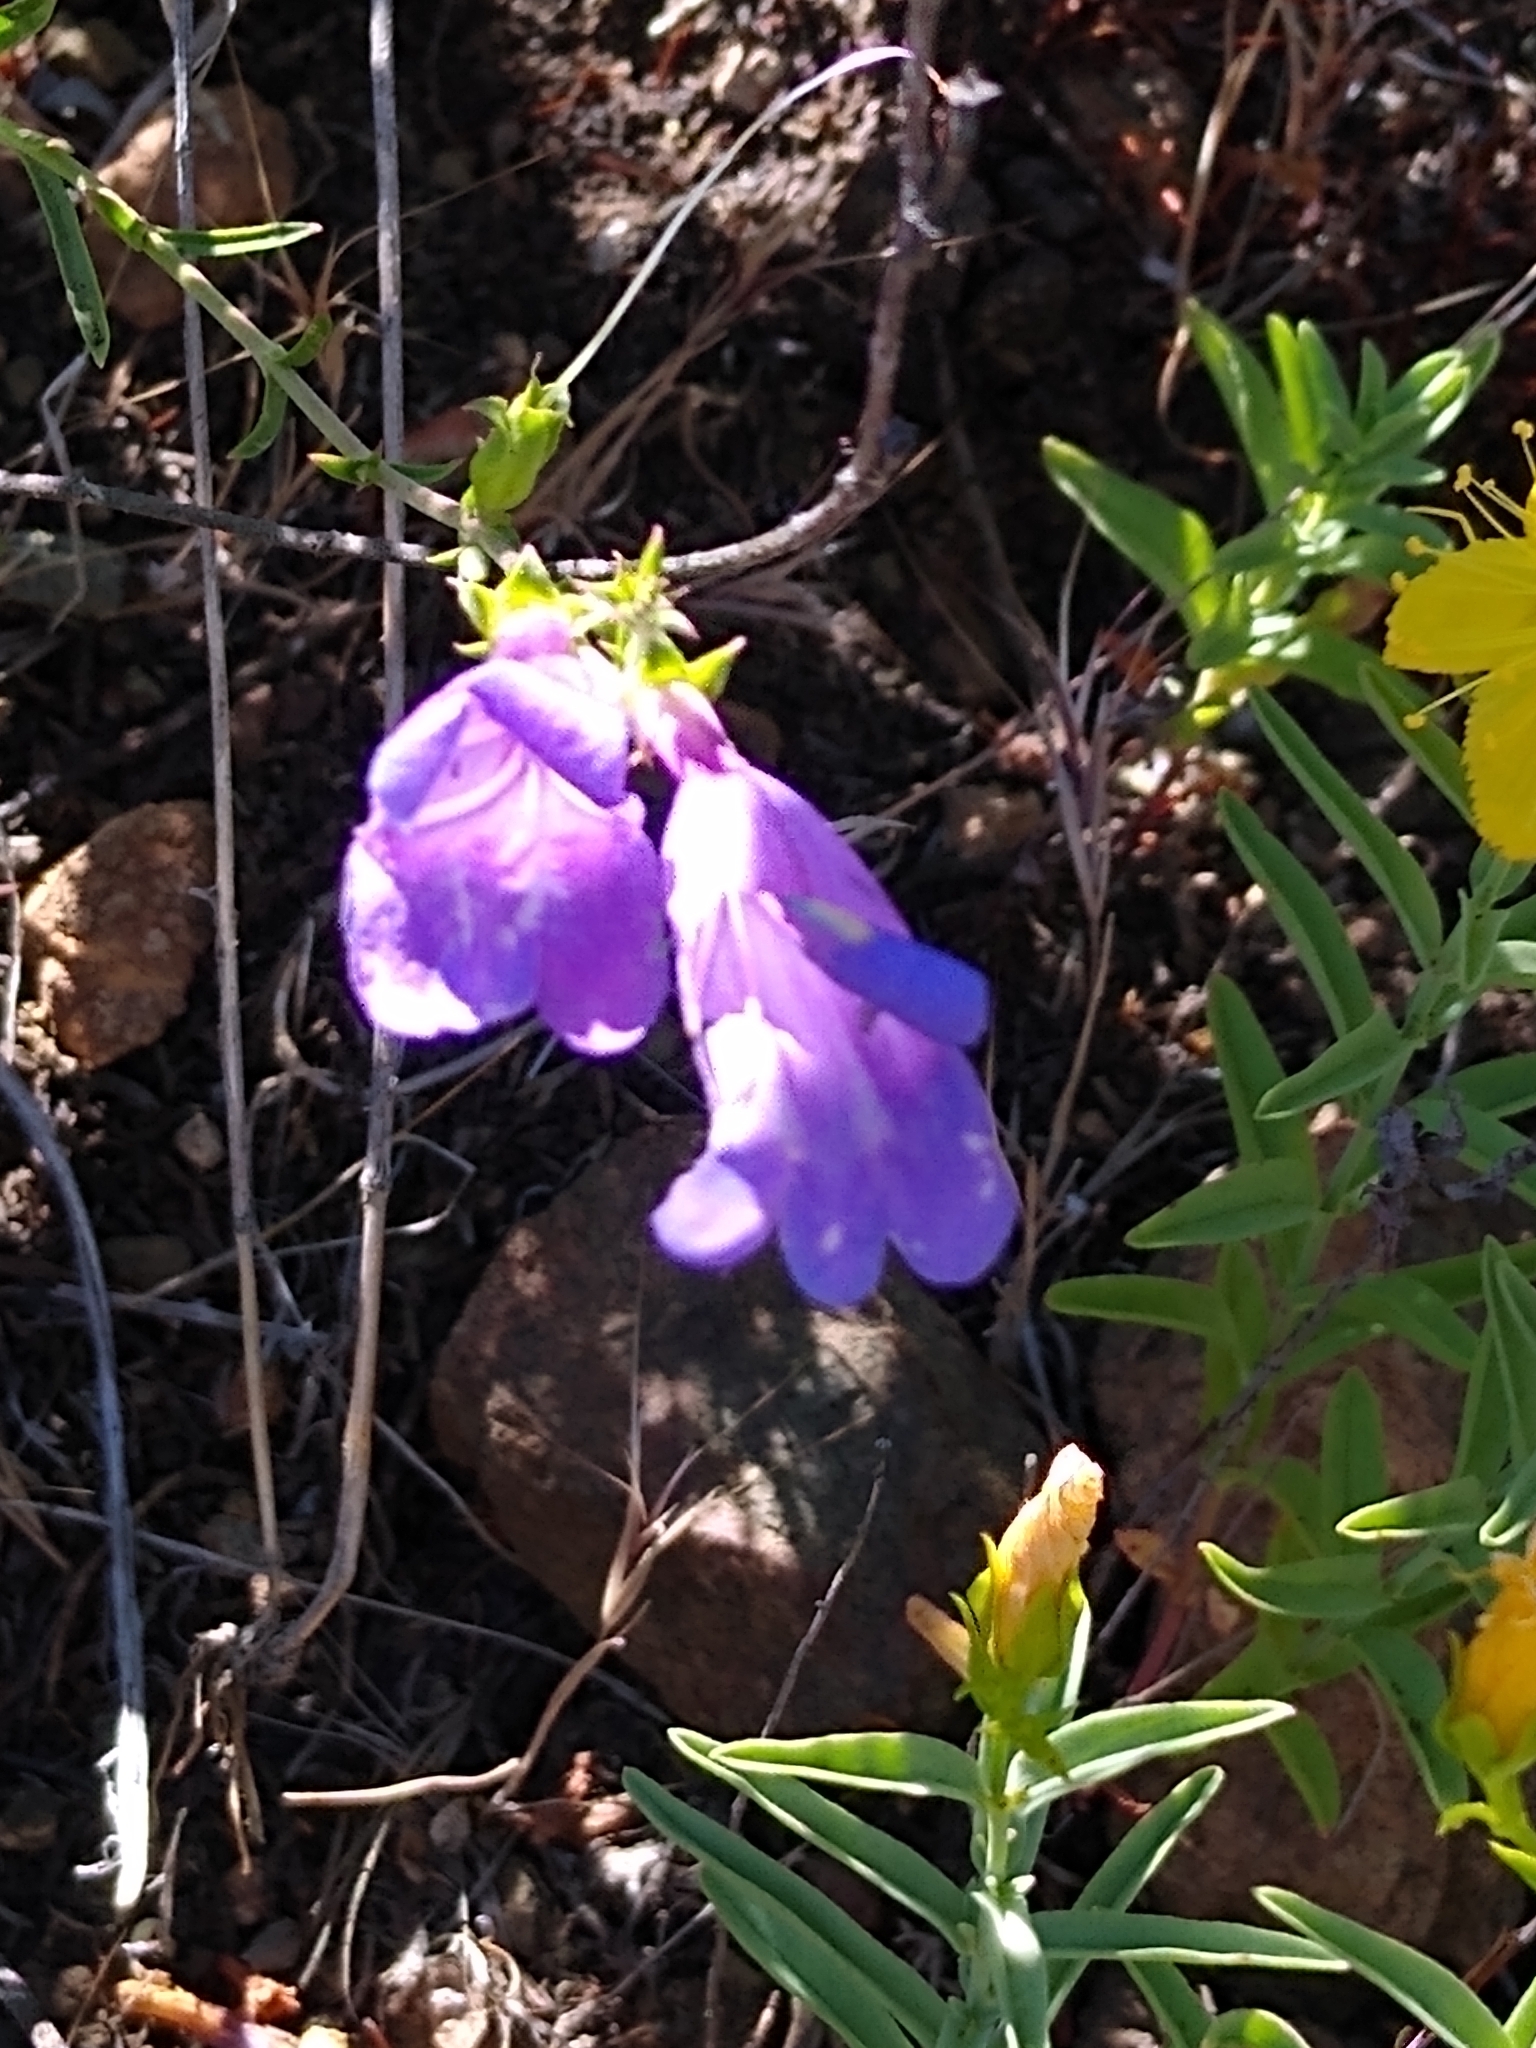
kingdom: Plantae
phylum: Tracheophyta
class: Magnoliopsida
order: Lamiales
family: Plantaginaceae
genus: Penstemon
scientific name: Penstemon heterophyllus
